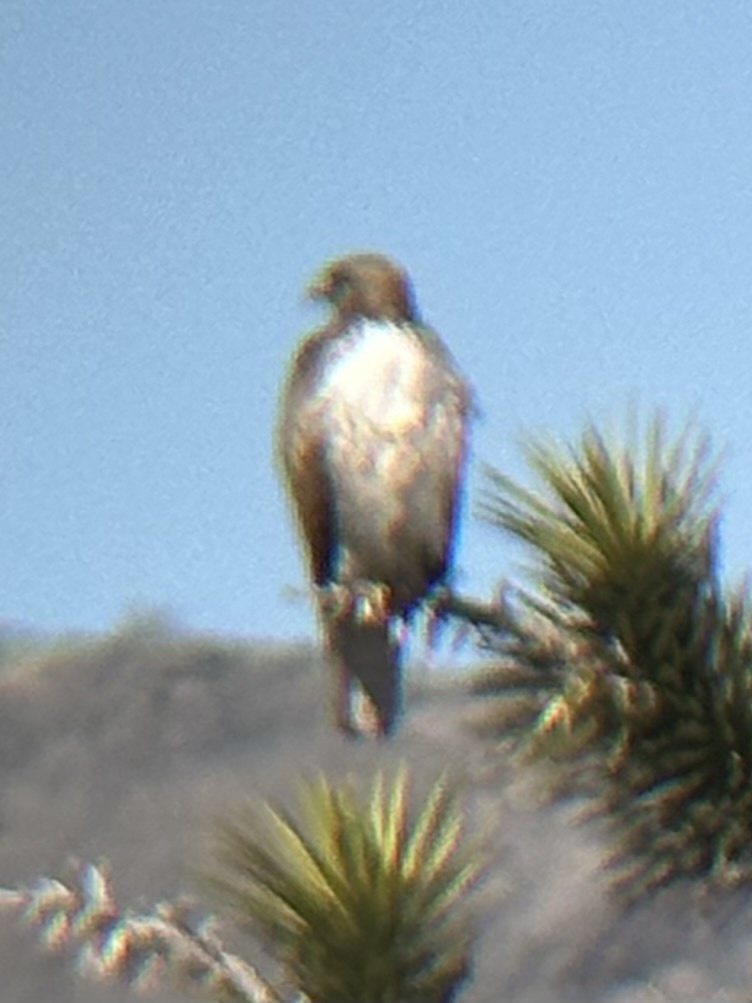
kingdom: Animalia
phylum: Chordata
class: Aves
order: Accipitriformes
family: Accipitridae
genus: Buteo
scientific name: Buteo jamaicensis
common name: Red-tailed hawk
